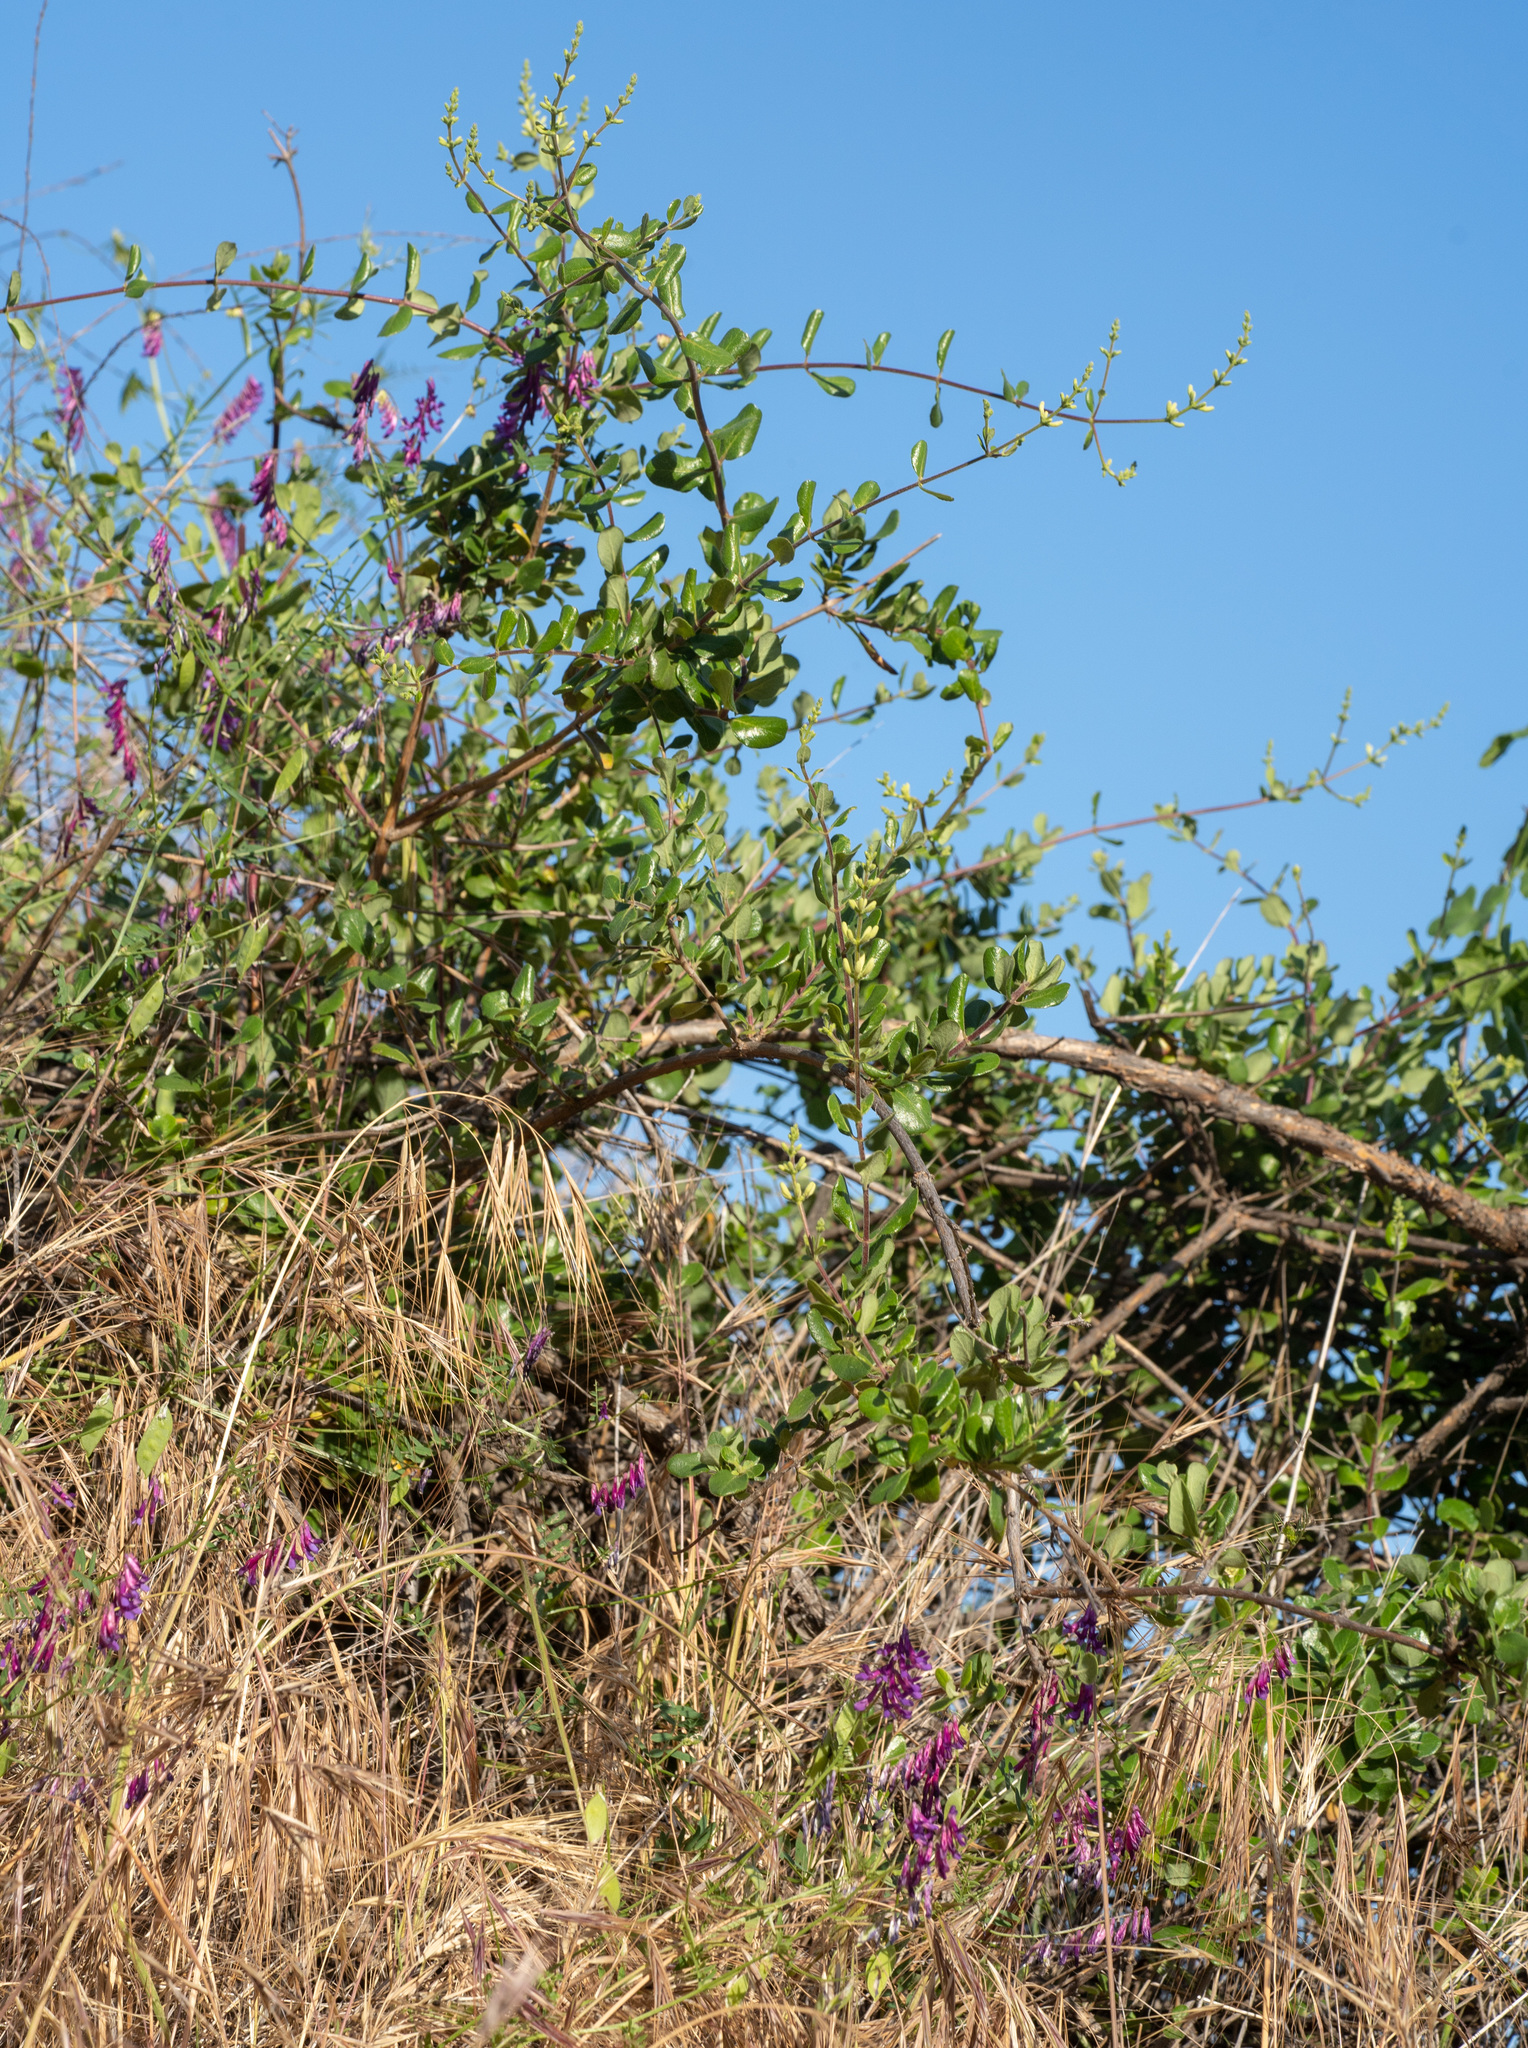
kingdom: Plantae
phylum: Tracheophyta
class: Magnoliopsida
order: Dipsacales
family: Caprifoliaceae
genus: Lonicera
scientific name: Lonicera subspicata
